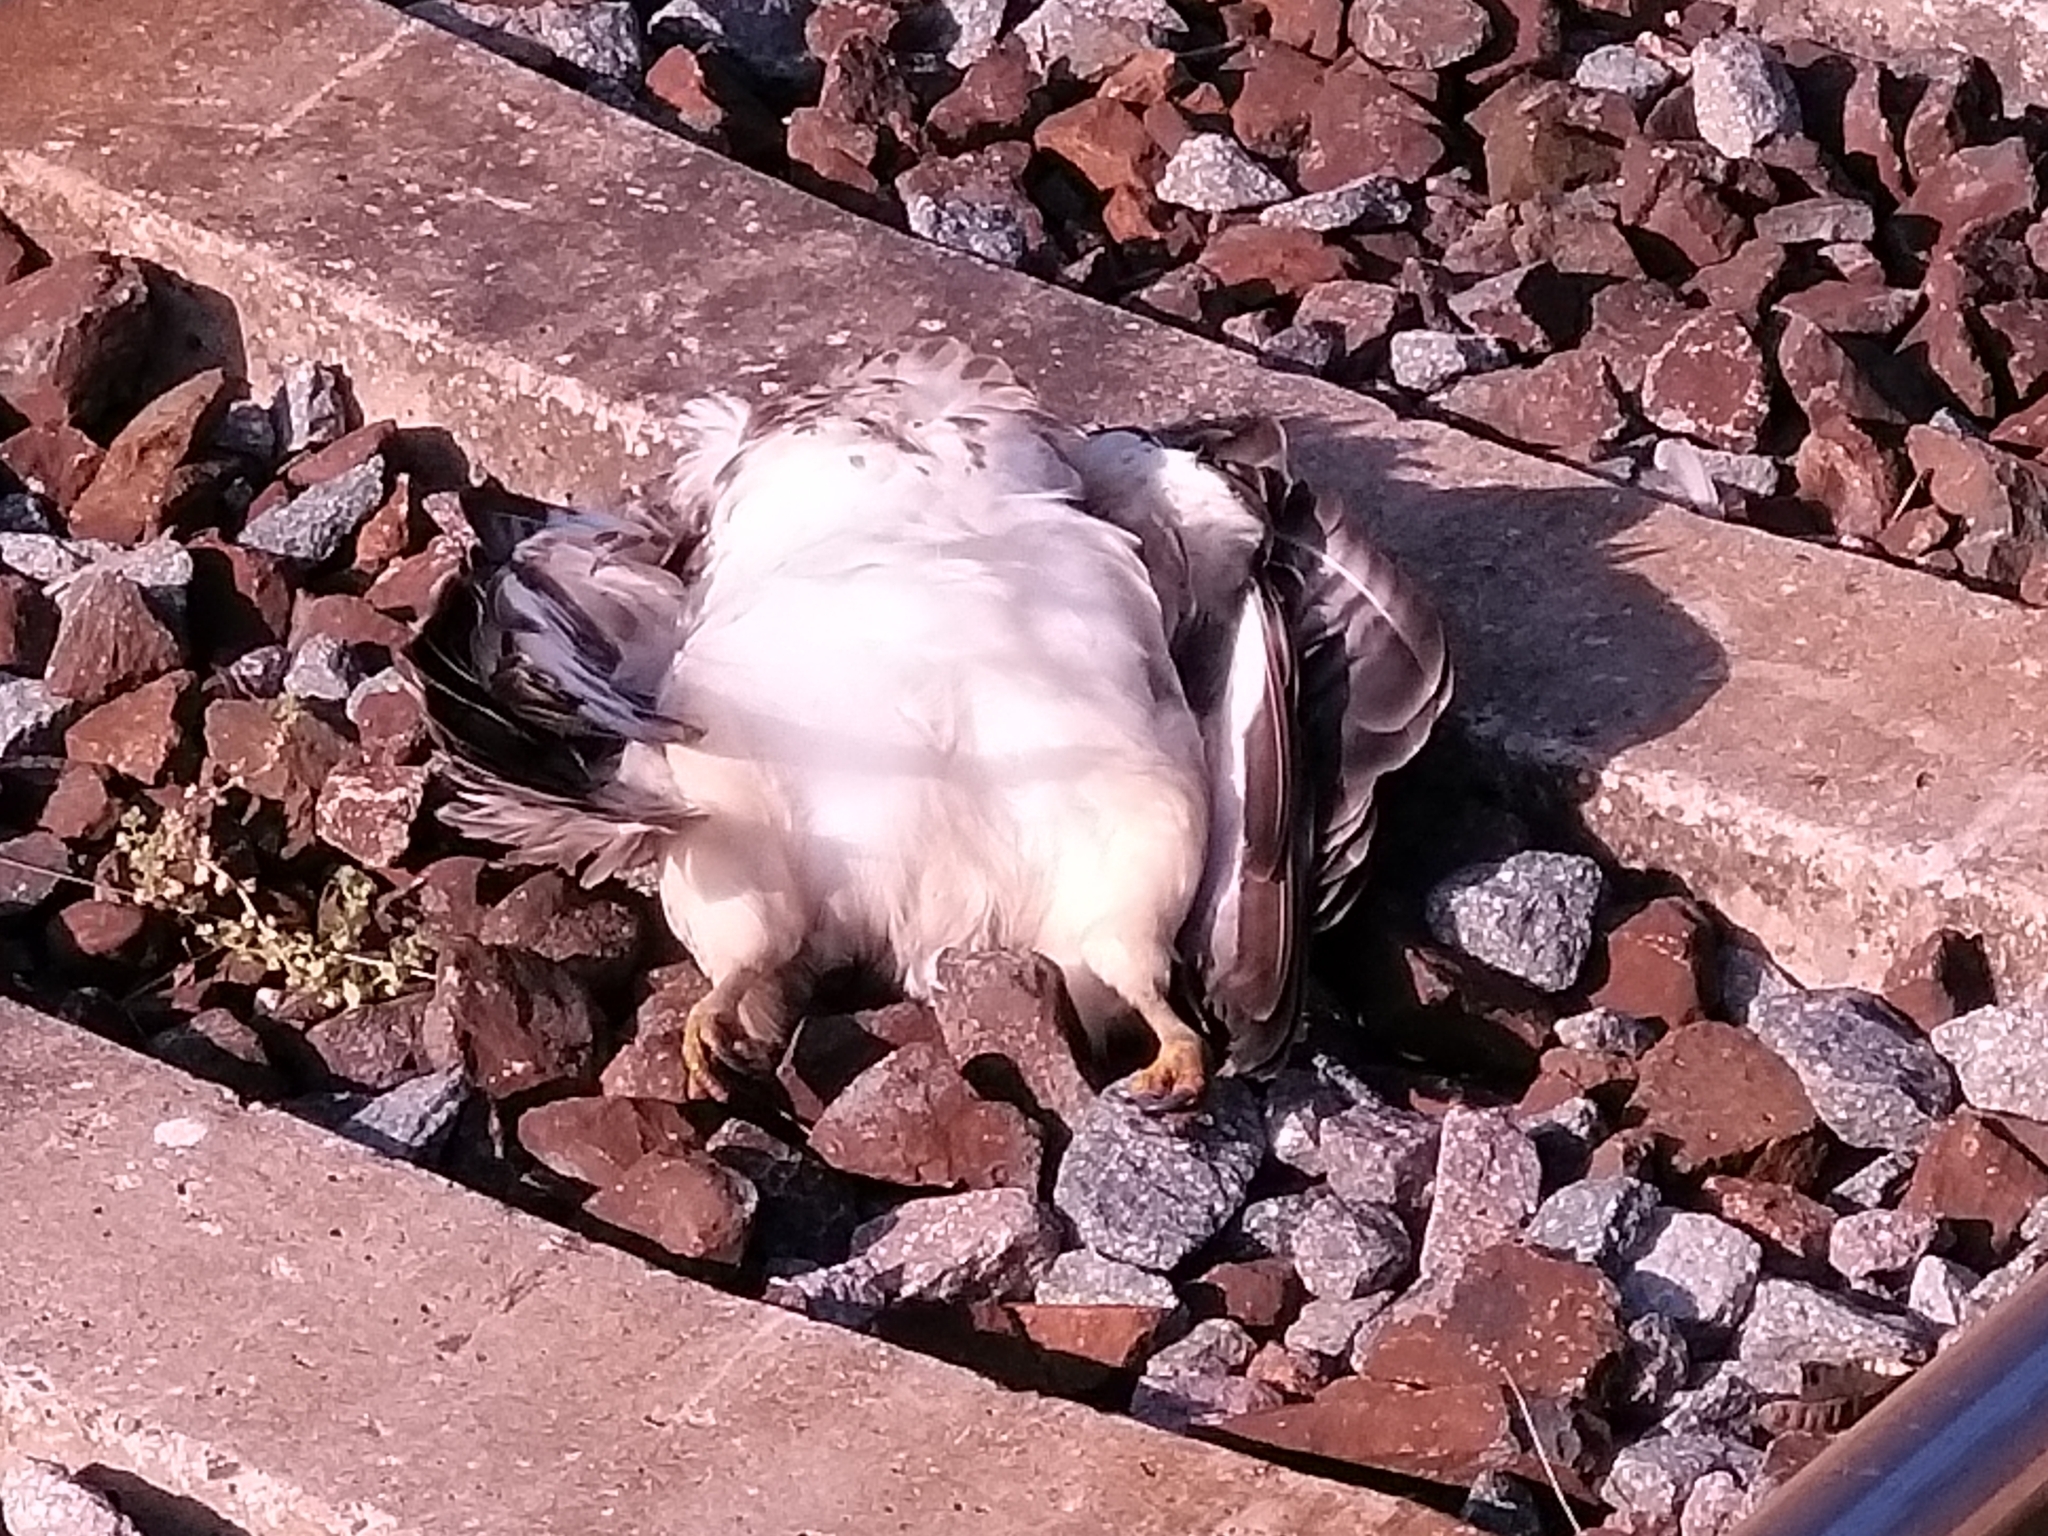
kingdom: Animalia
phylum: Chordata
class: Aves
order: Accipitriformes
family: Accipitridae
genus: Buteo
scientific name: Buteo buteo
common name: Common buzzard
